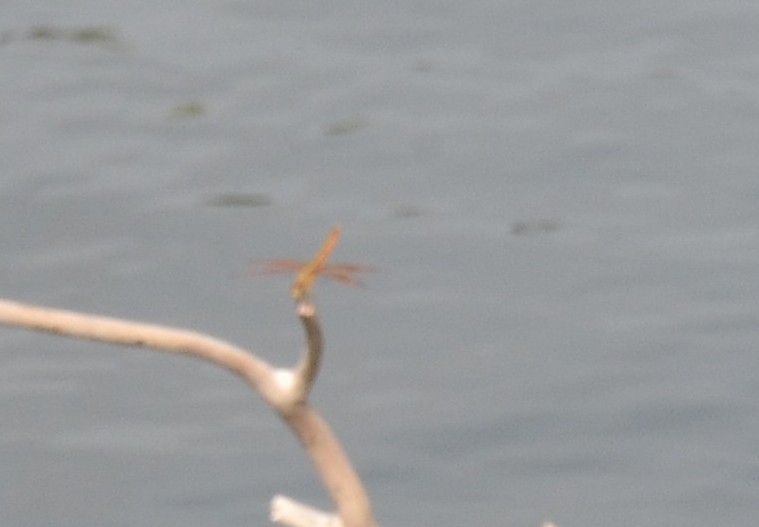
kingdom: Animalia
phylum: Arthropoda
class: Insecta
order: Odonata
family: Libellulidae
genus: Brachythemis
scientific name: Brachythemis contaminata
